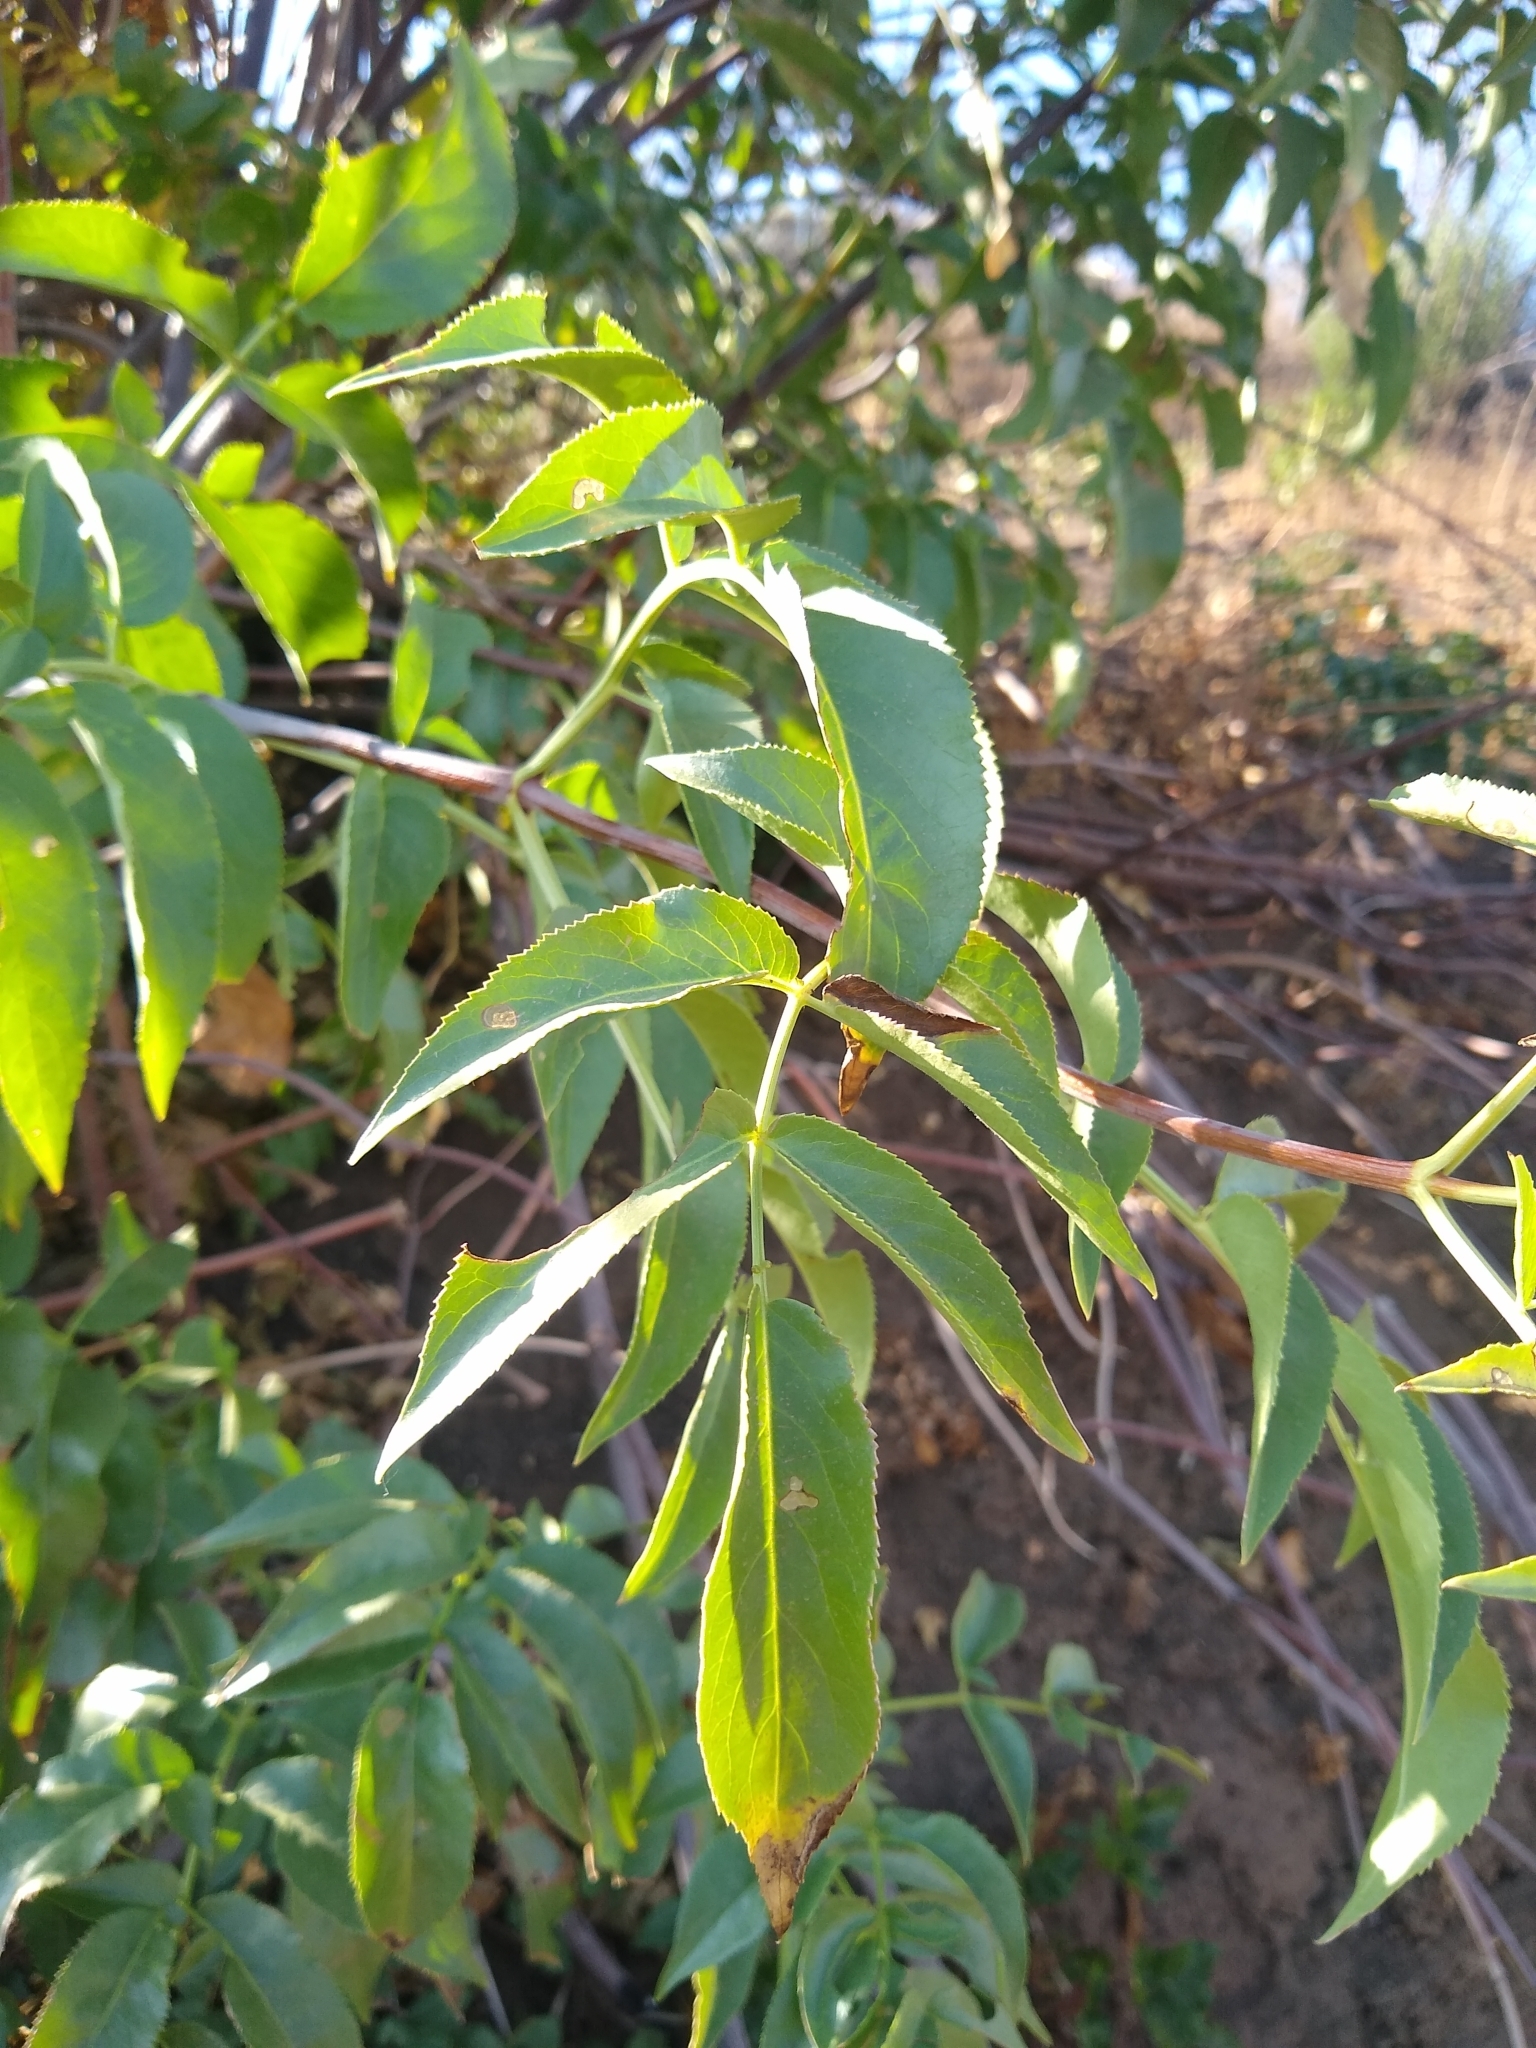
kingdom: Plantae
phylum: Tracheophyta
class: Magnoliopsida
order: Dipsacales
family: Viburnaceae
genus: Sambucus
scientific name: Sambucus cerulea
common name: Blue elder
